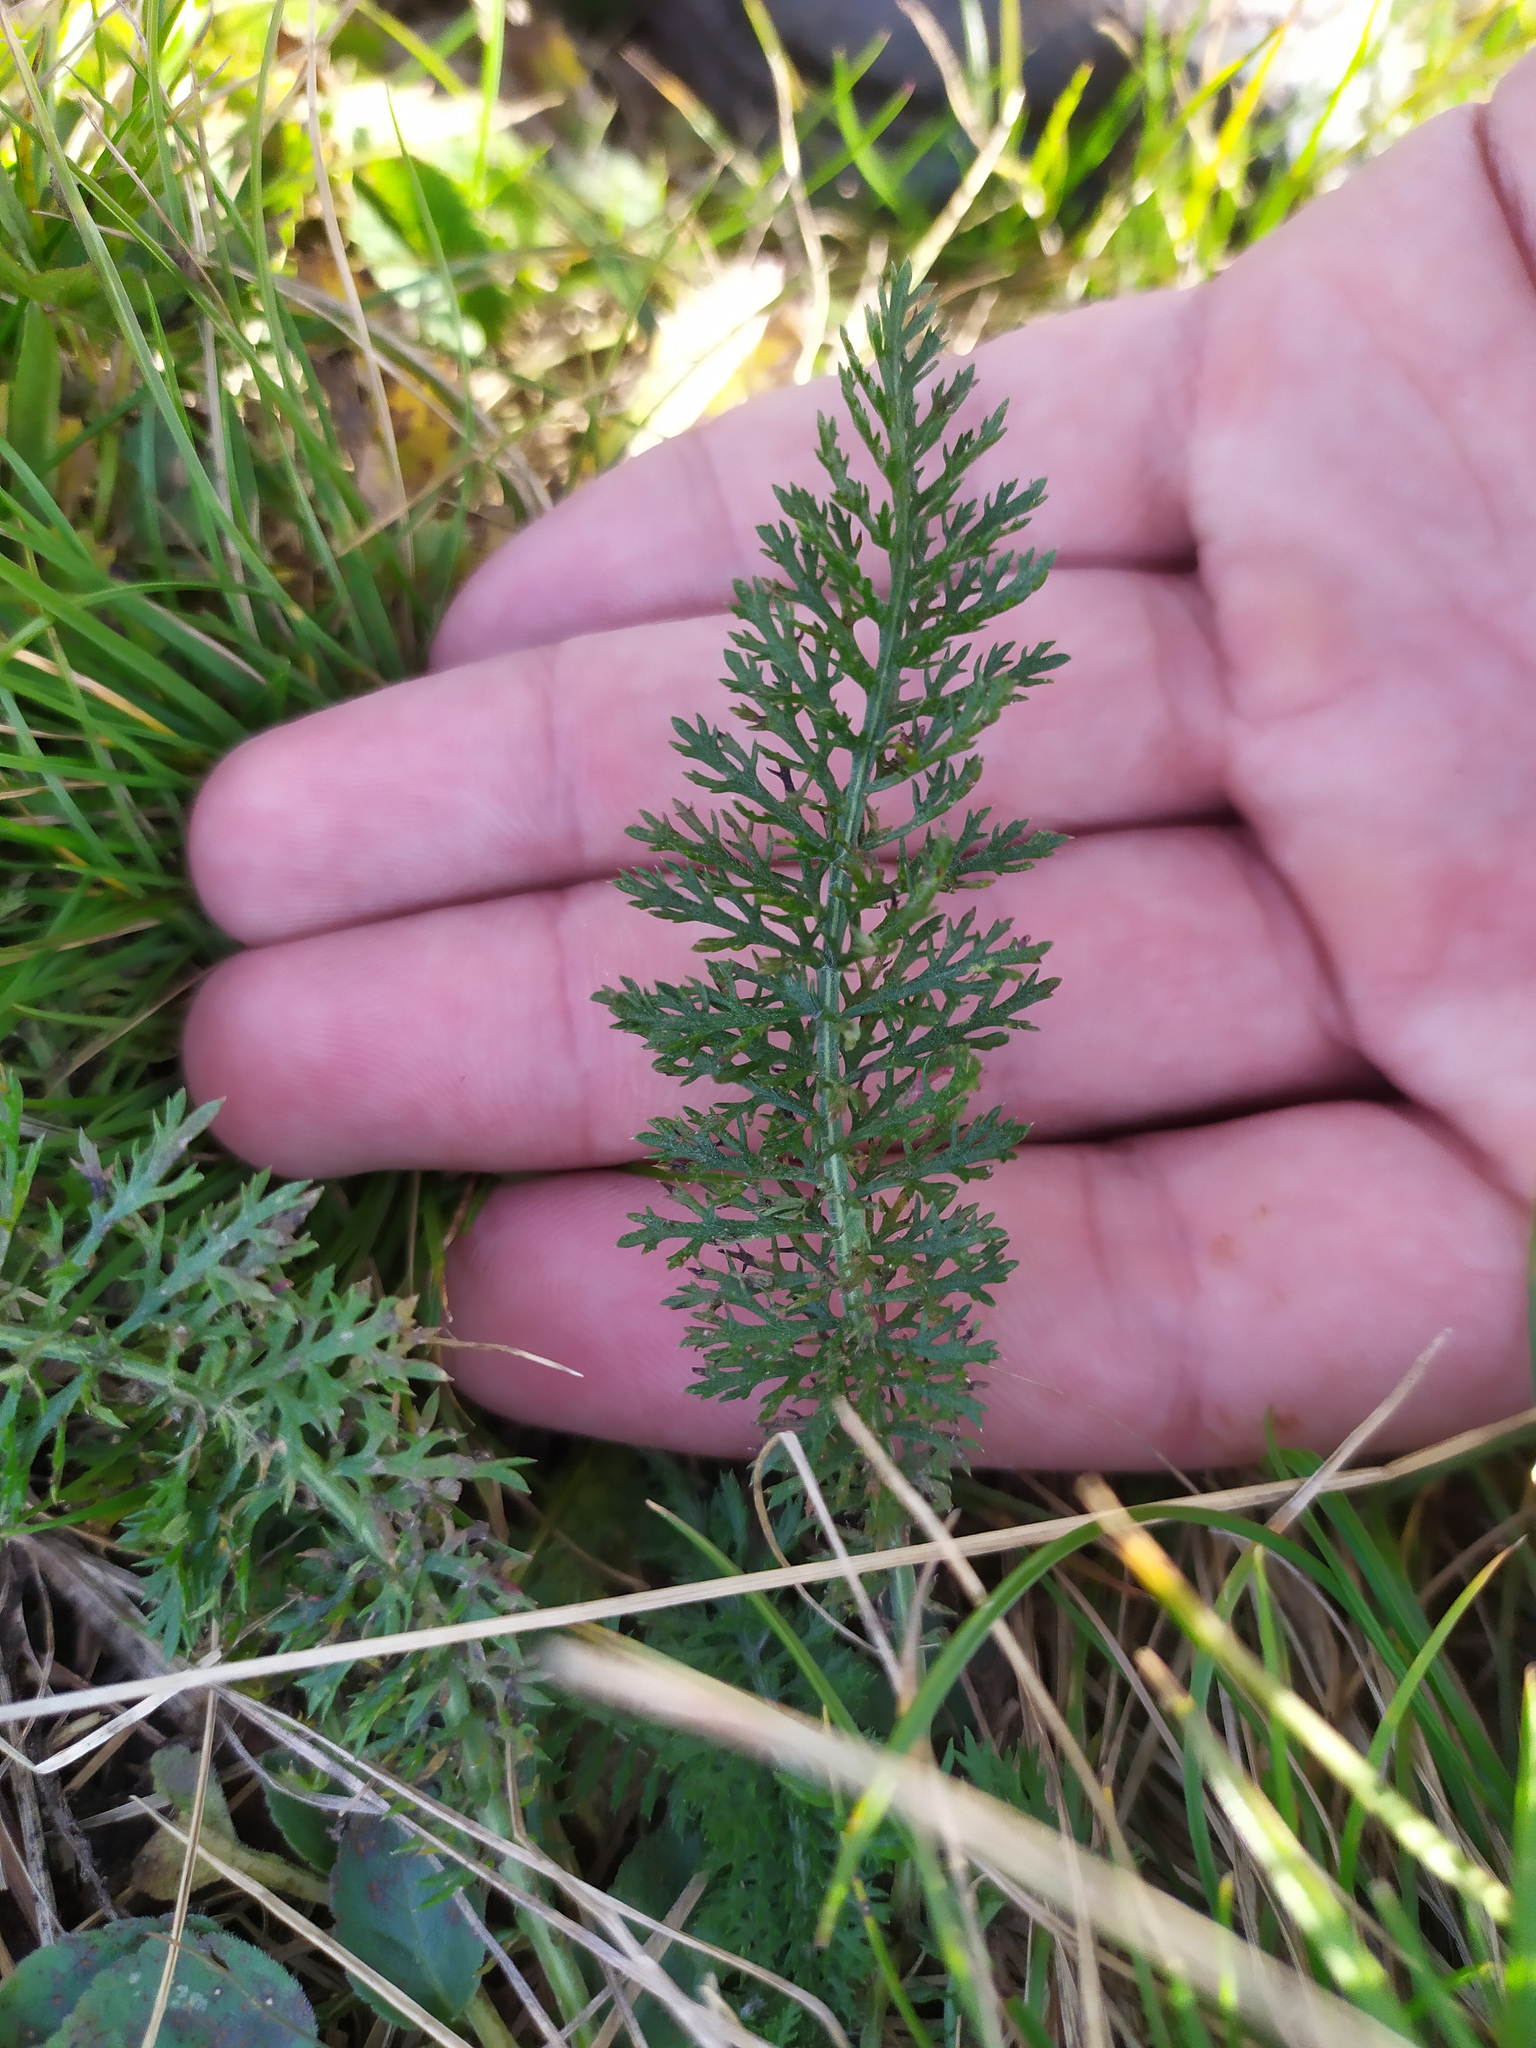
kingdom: Plantae
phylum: Tracheophyta
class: Magnoliopsida
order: Asterales
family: Asteraceae
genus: Achillea
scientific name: Achillea millefolium
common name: Yarrow
